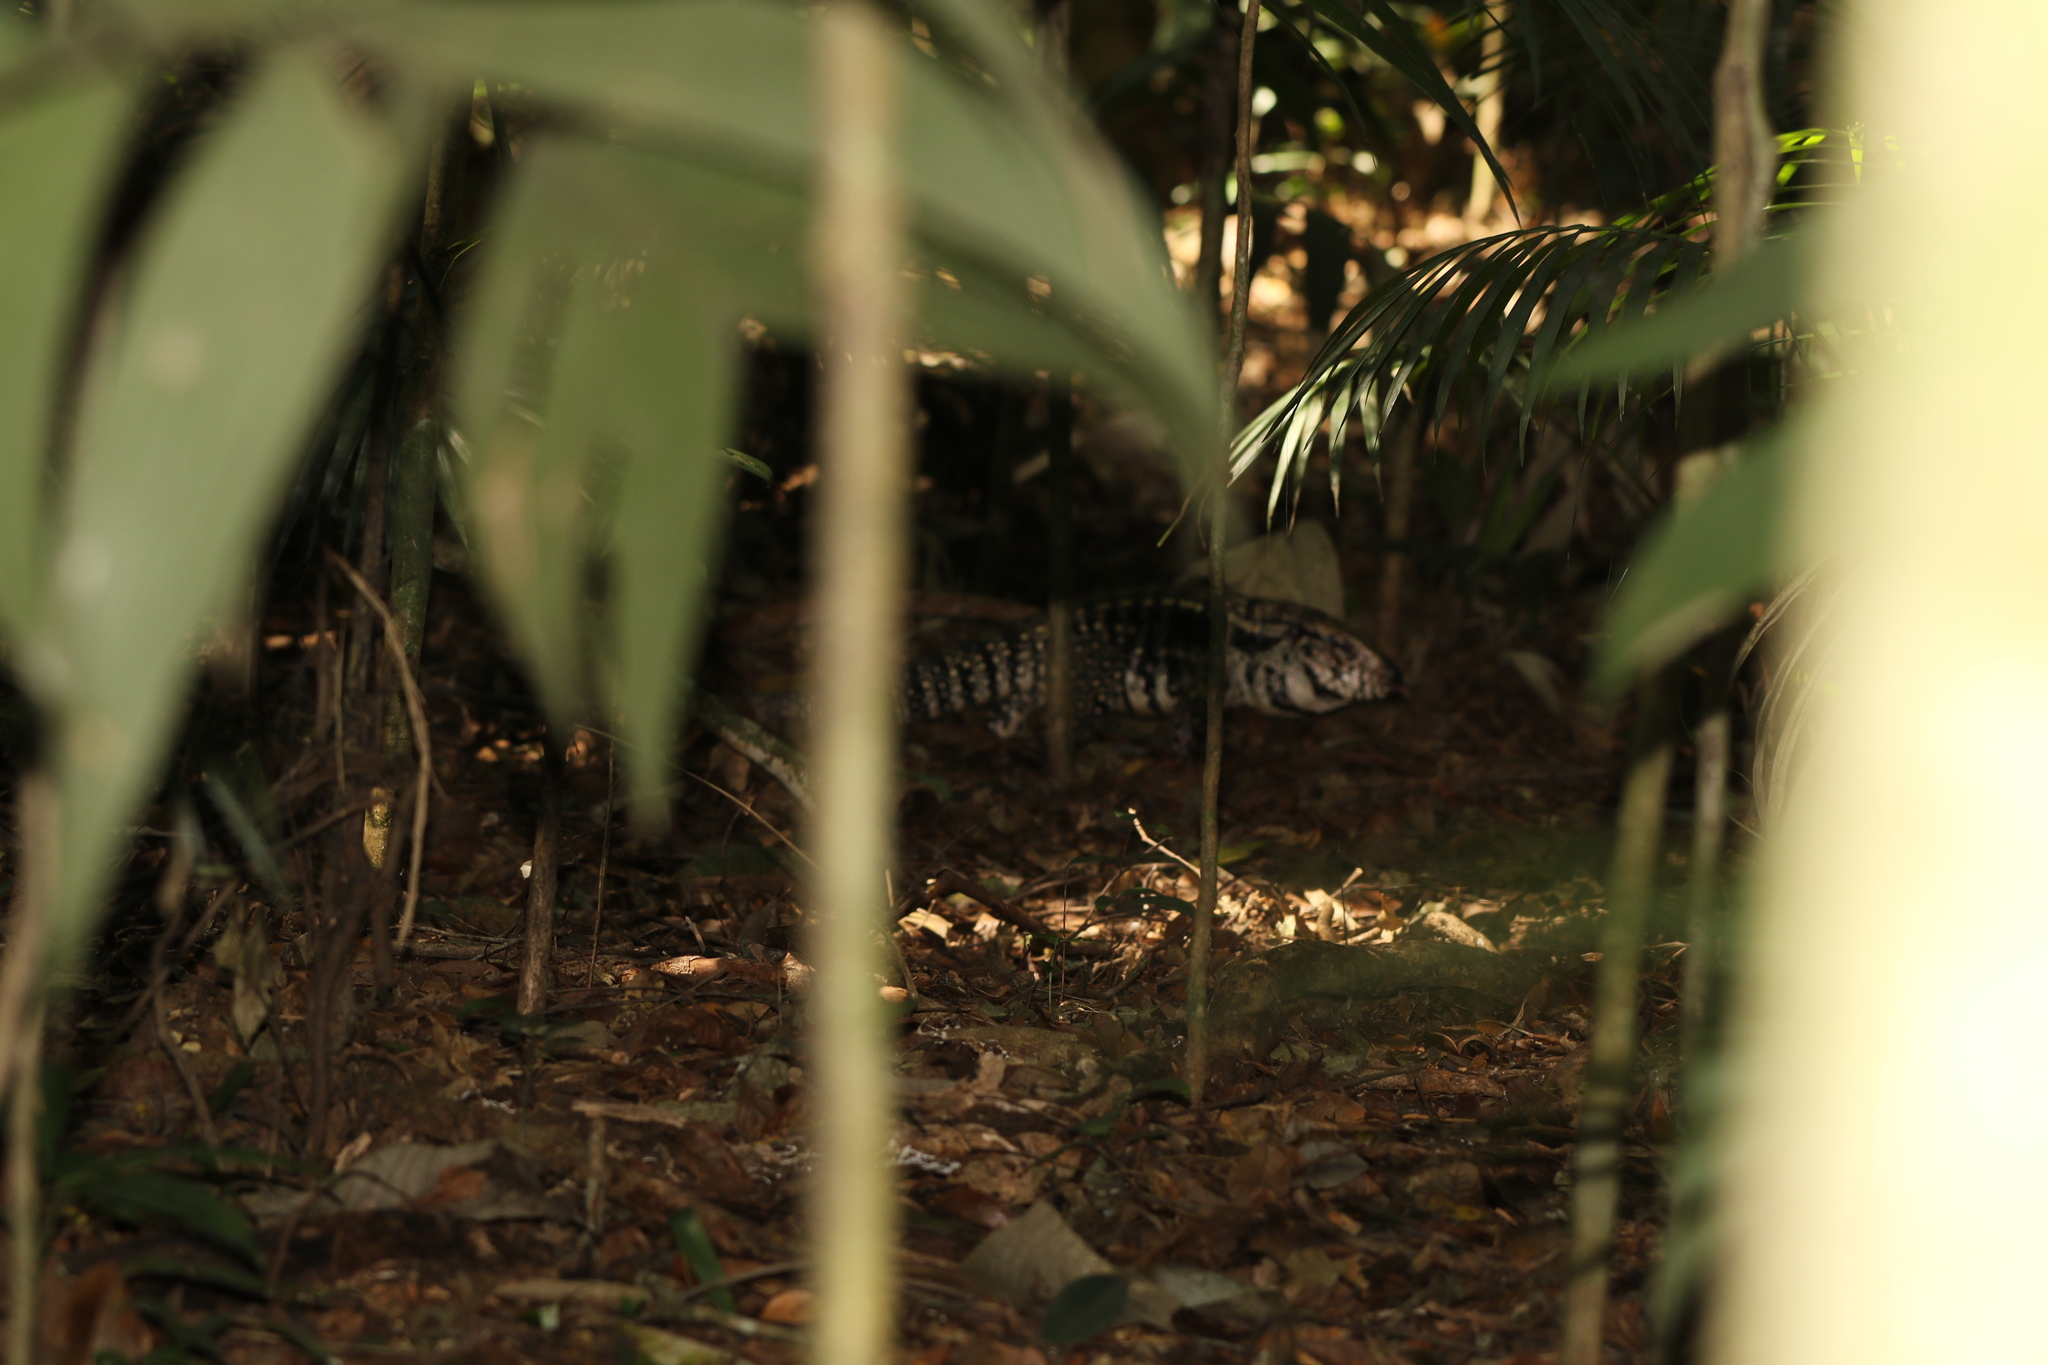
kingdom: Animalia
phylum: Chordata
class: Squamata
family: Teiidae
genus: Salvator
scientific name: Salvator merianae
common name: Argentine black and white tegu
